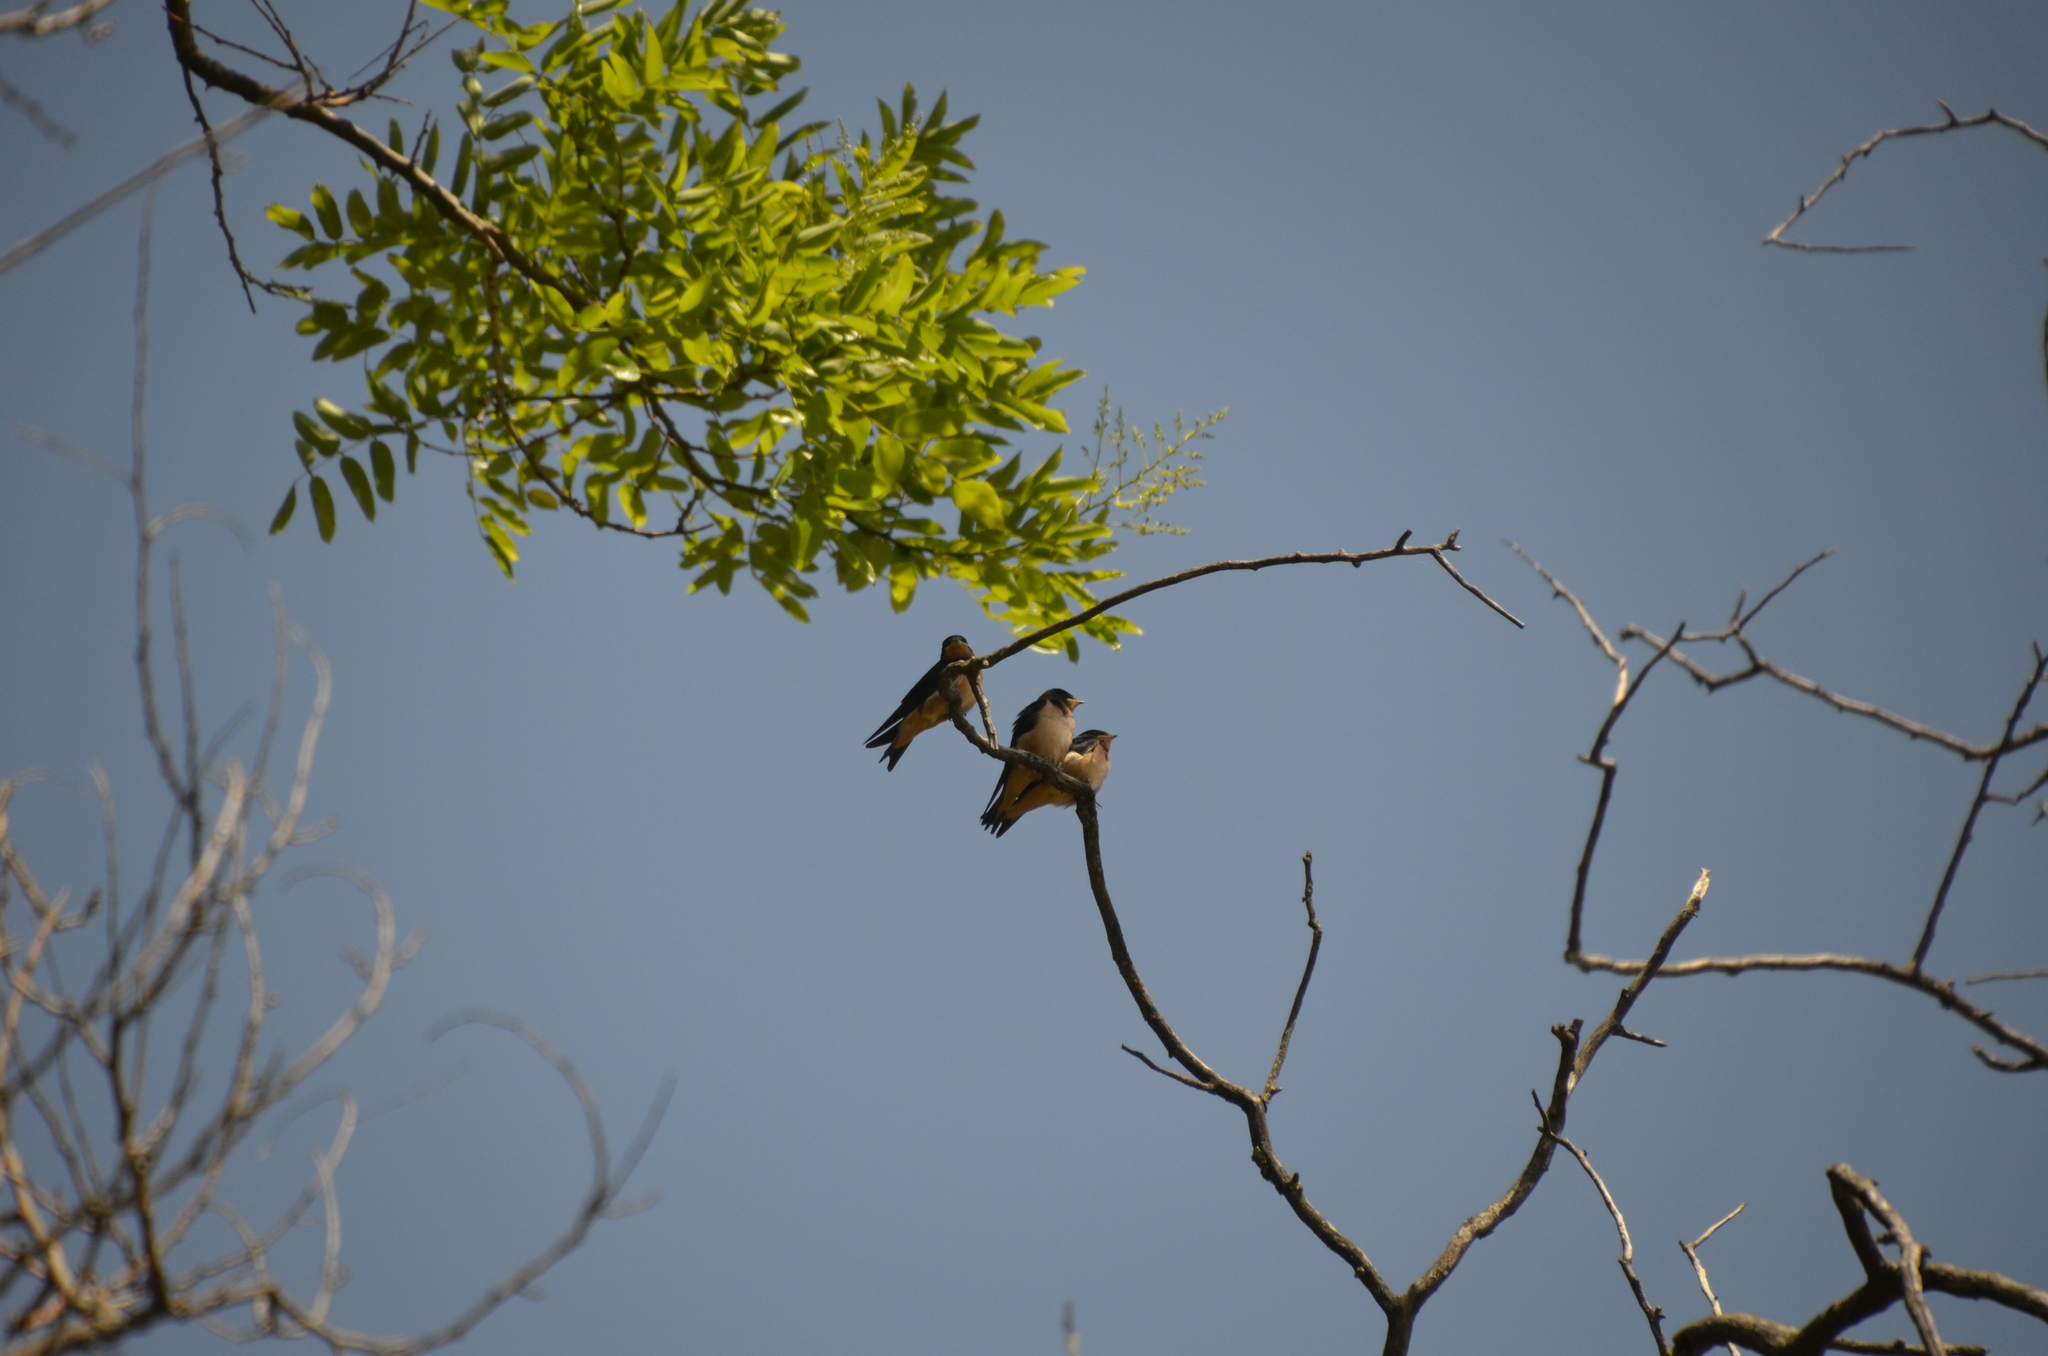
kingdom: Animalia
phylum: Chordata
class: Aves
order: Passeriformes
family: Hirundinidae
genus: Hirundo
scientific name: Hirundo rustica
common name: Barn swallow
